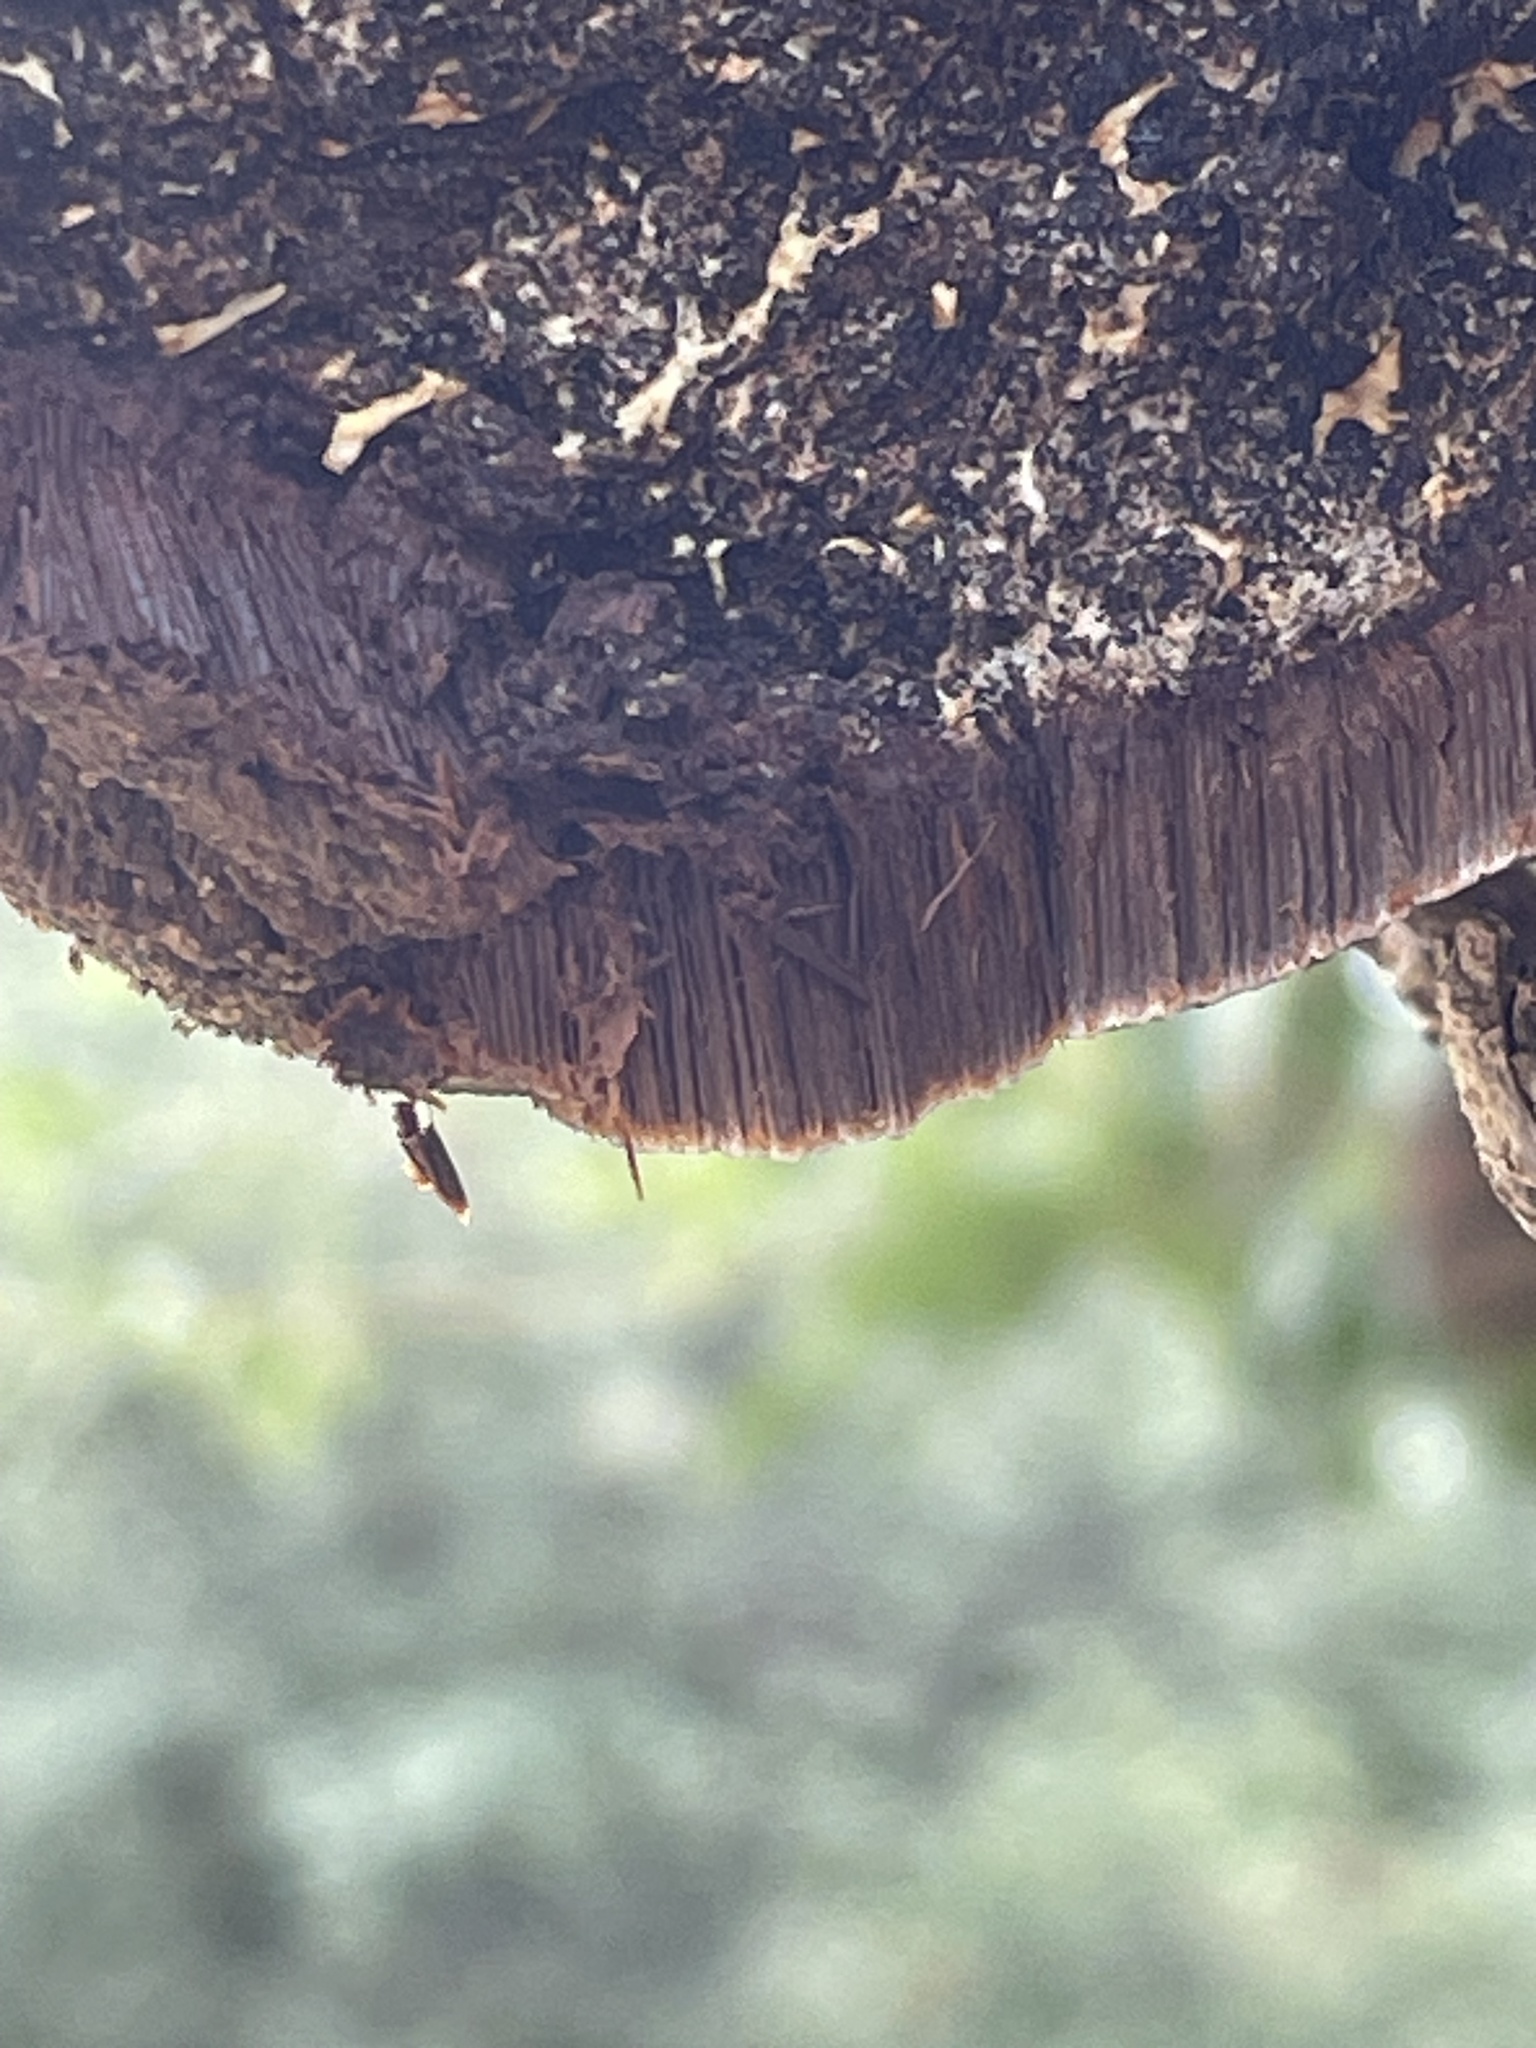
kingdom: Fungi
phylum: Basidiomycota
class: Agaricomycetes
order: Hymenochaetales
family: Hymenochaetaceae
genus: Inocutis
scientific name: Inocutis dryophila
